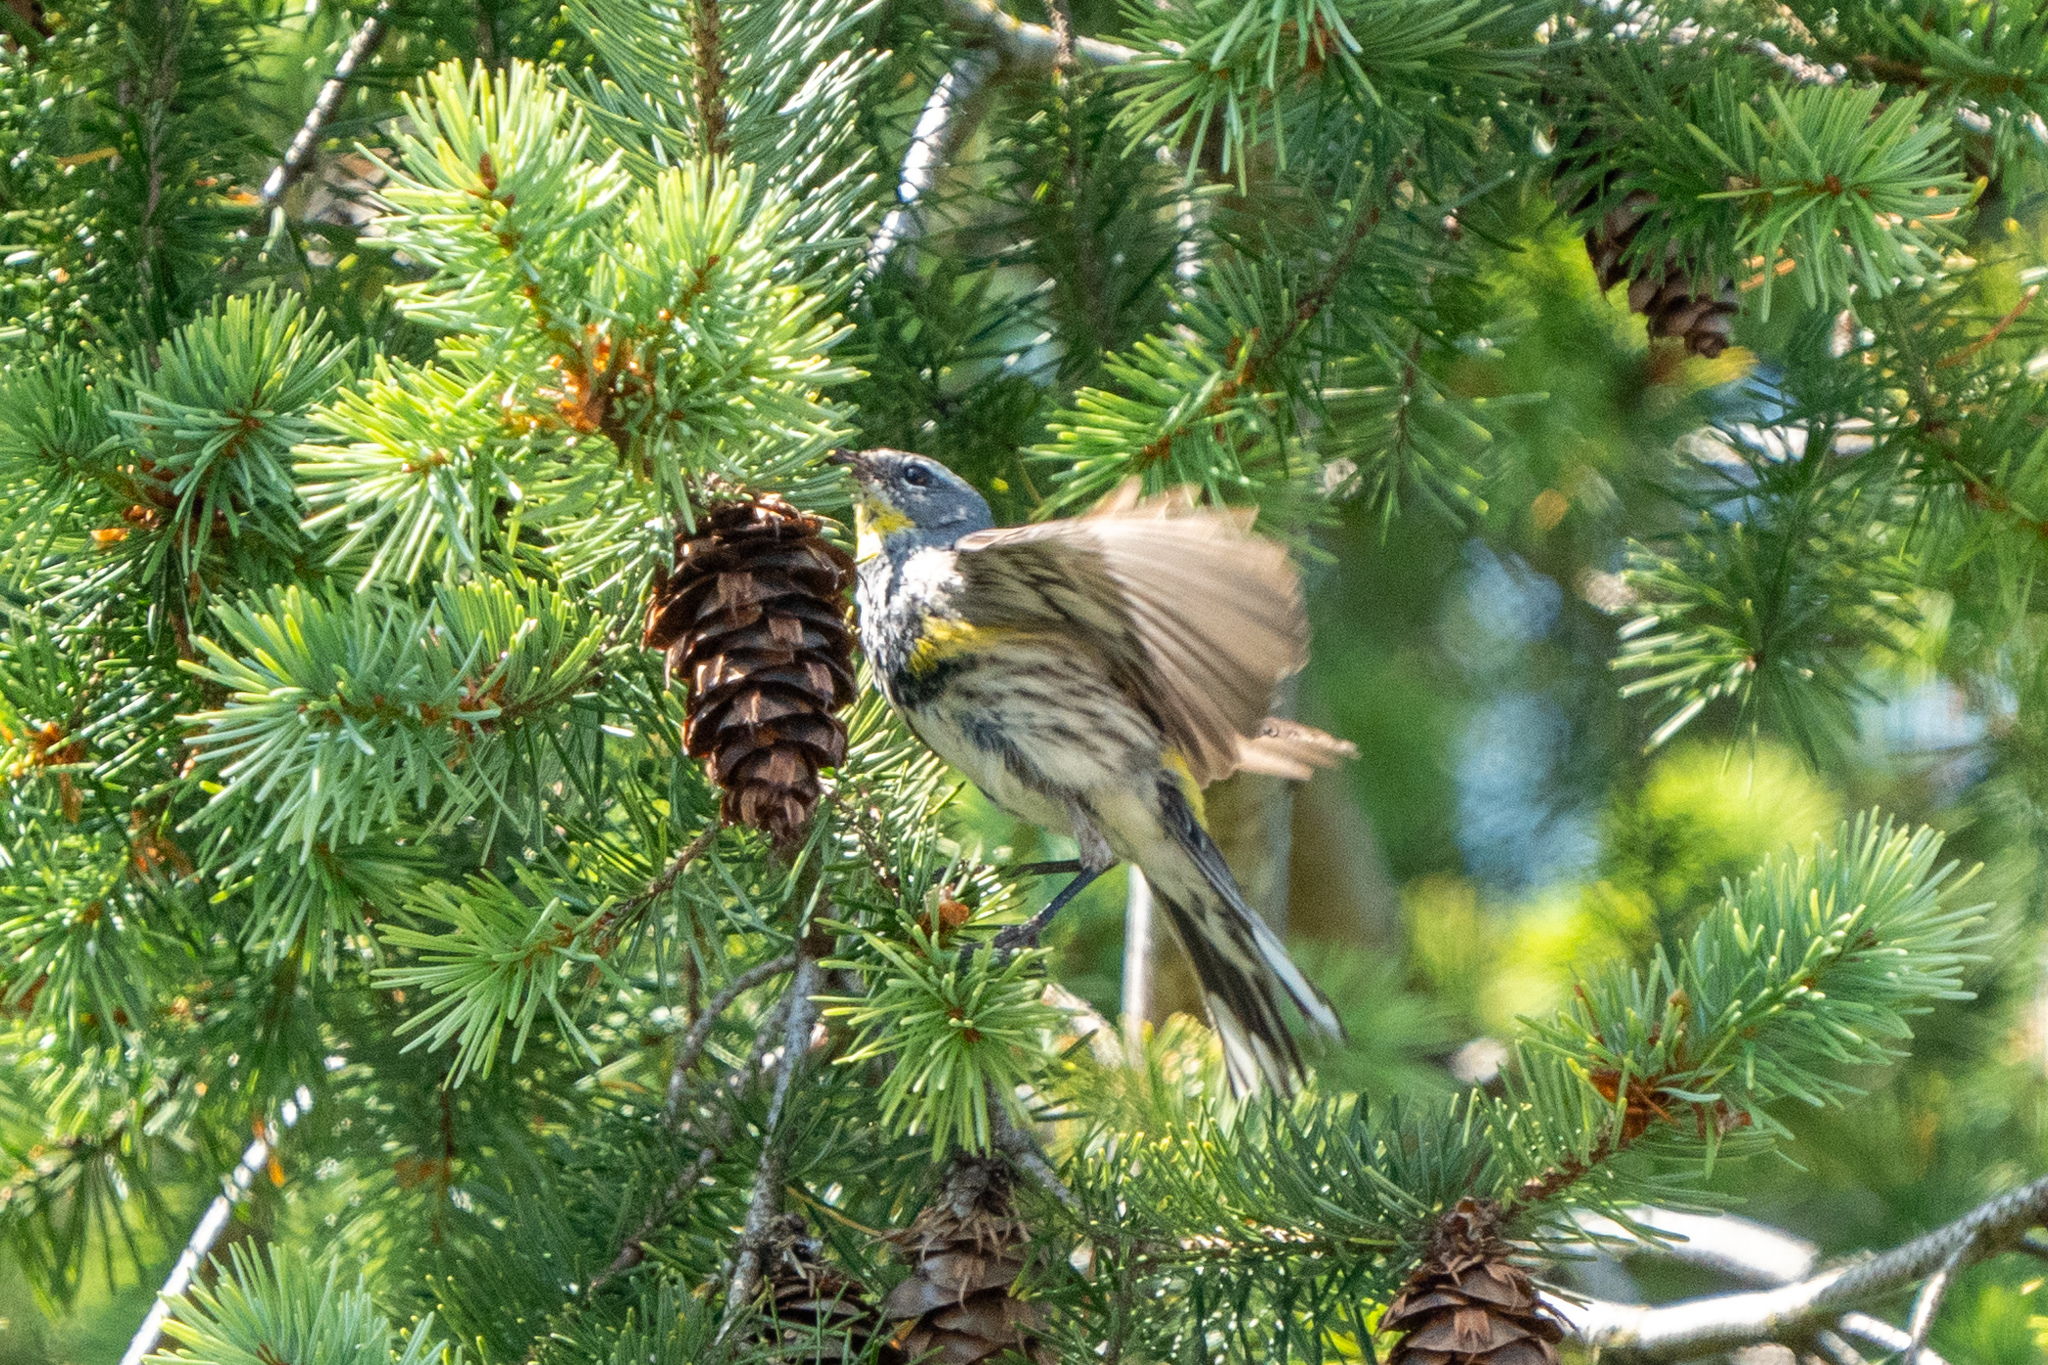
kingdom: Animalia
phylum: Chordata
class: Aves
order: Passeriformes
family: Parulidae
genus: Setophaga
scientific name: Setophaga coronata
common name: Myrtle warbler
